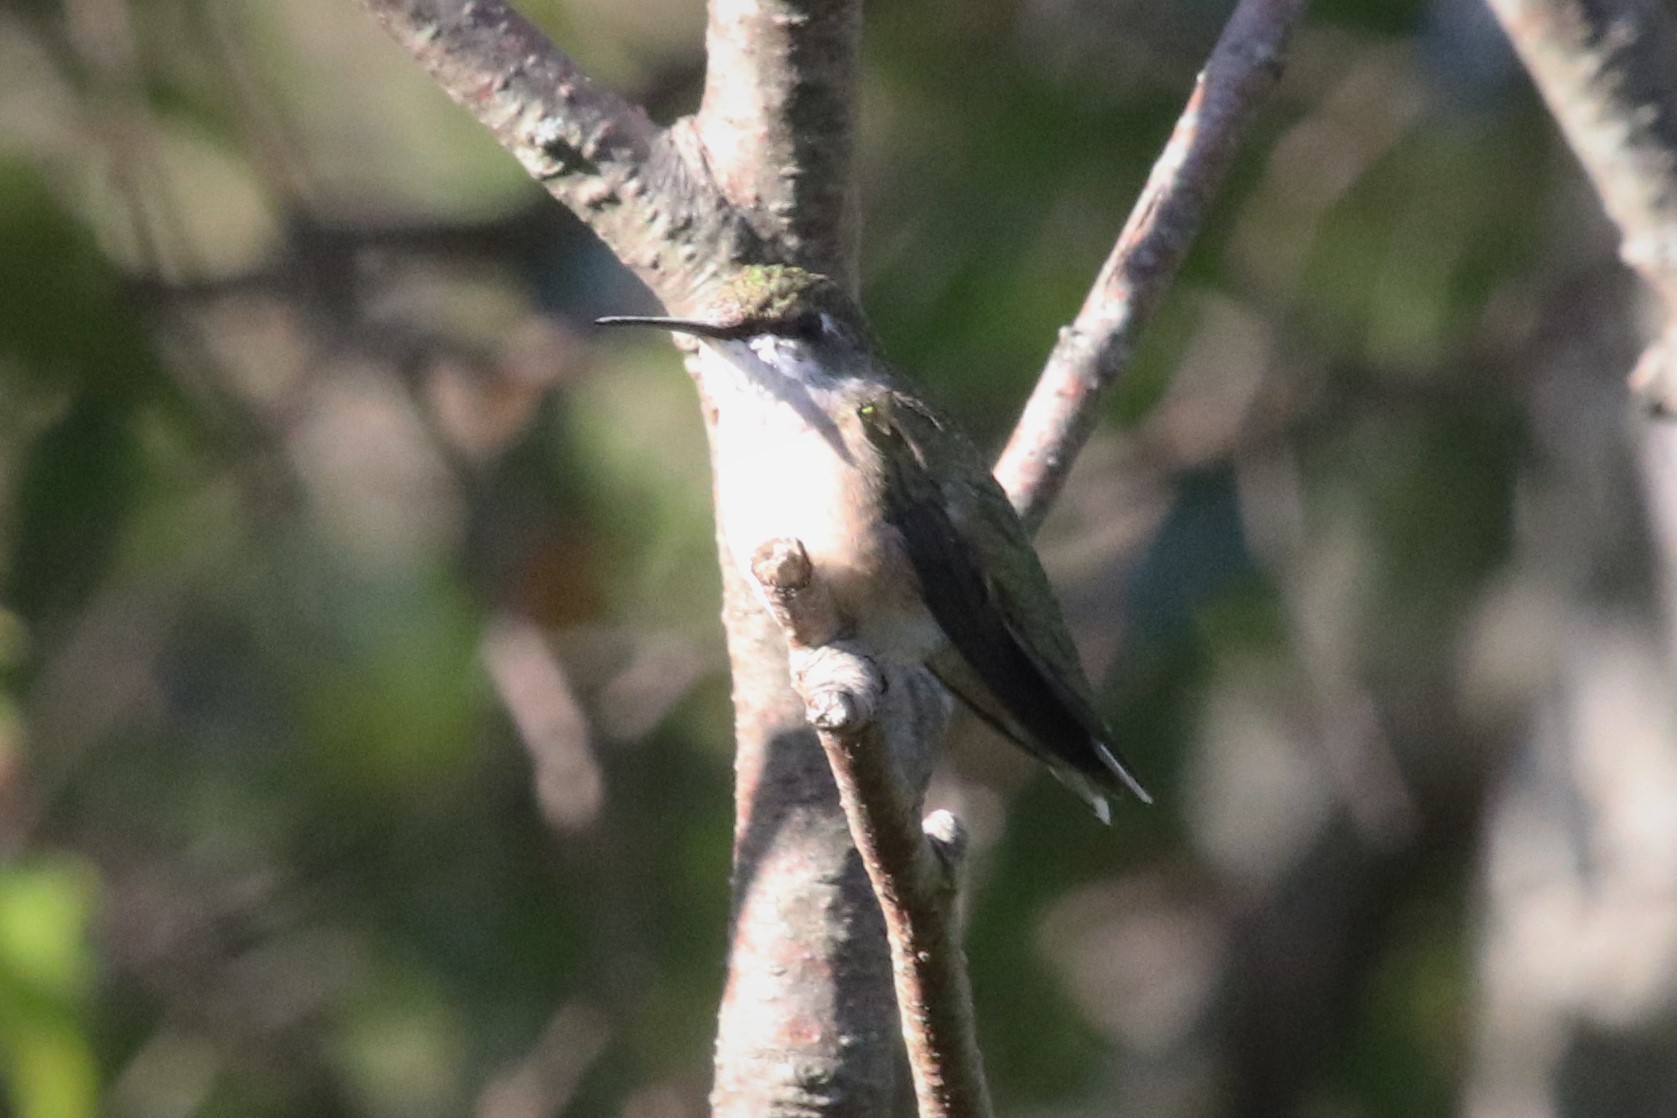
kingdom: Animalia
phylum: Chordata
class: Aves
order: Apodiformes
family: Trochilidae
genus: Archilochus
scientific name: Archilochus colubris
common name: Ruby-throated hummingbird
